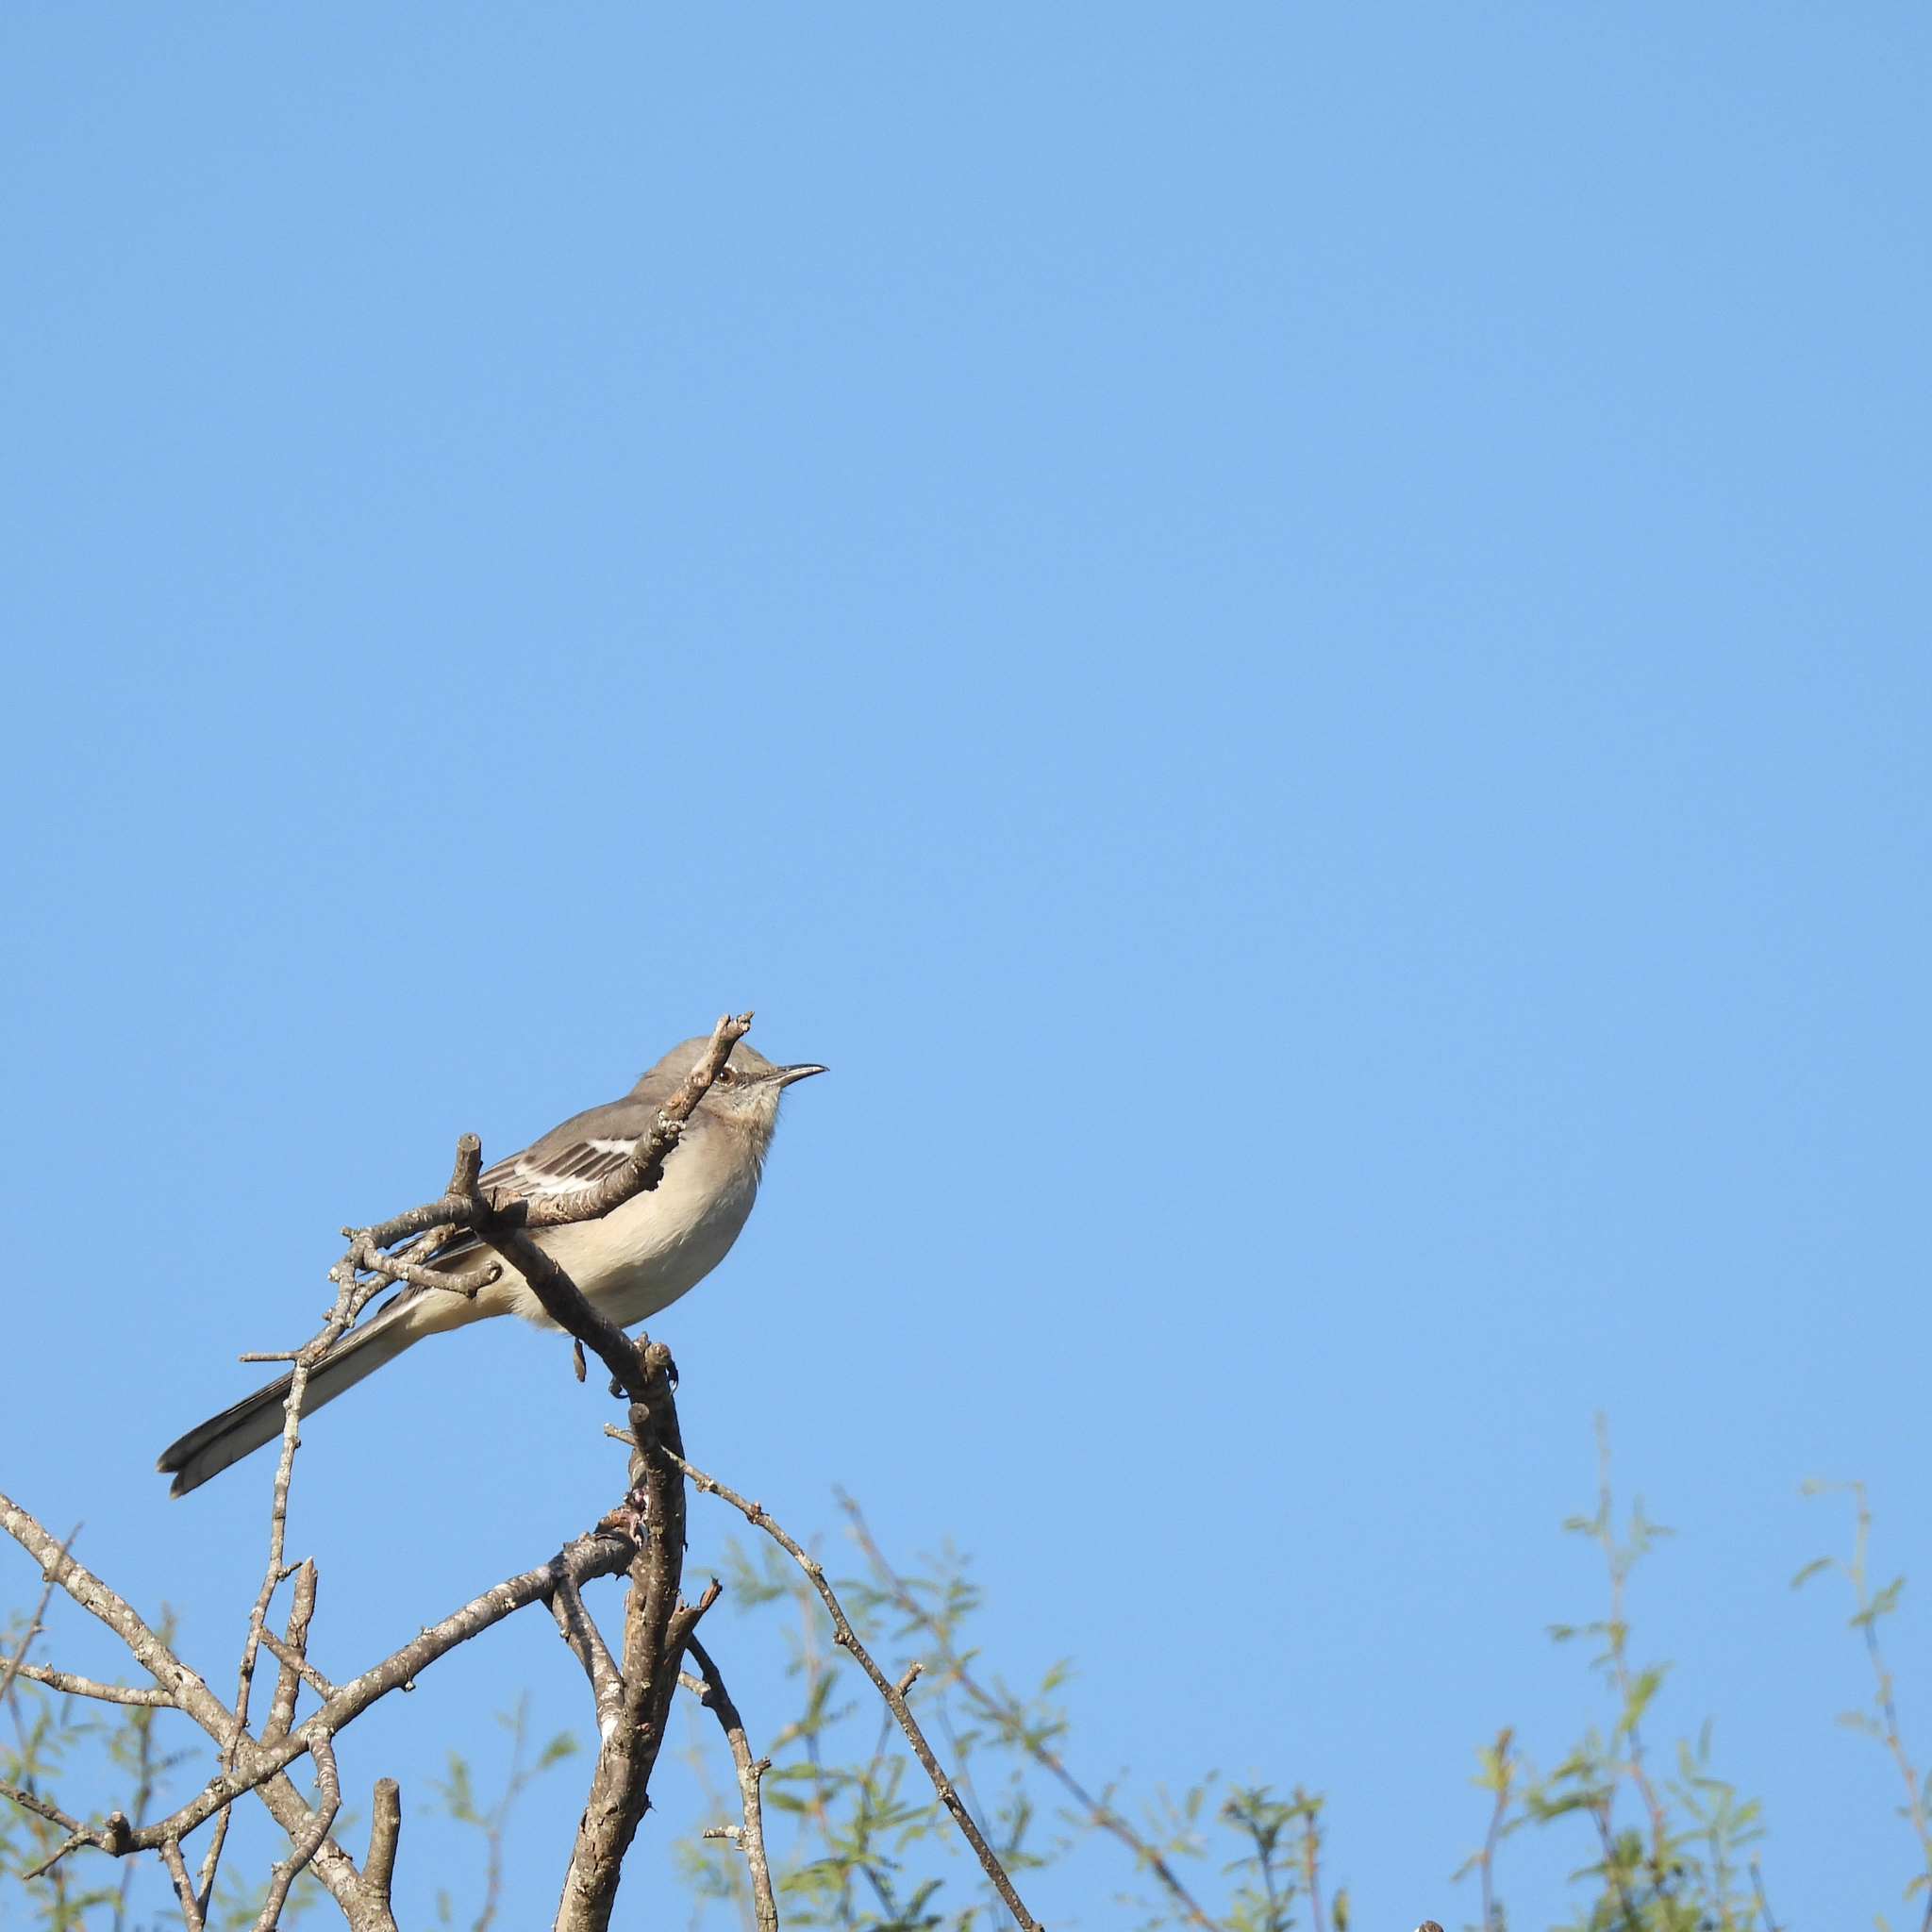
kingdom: Animalia
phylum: Chordata
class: Aves
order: Passeriformes
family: Mimidae
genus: Mimus
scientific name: Mimus polyglottos
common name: Northern mockingbird
